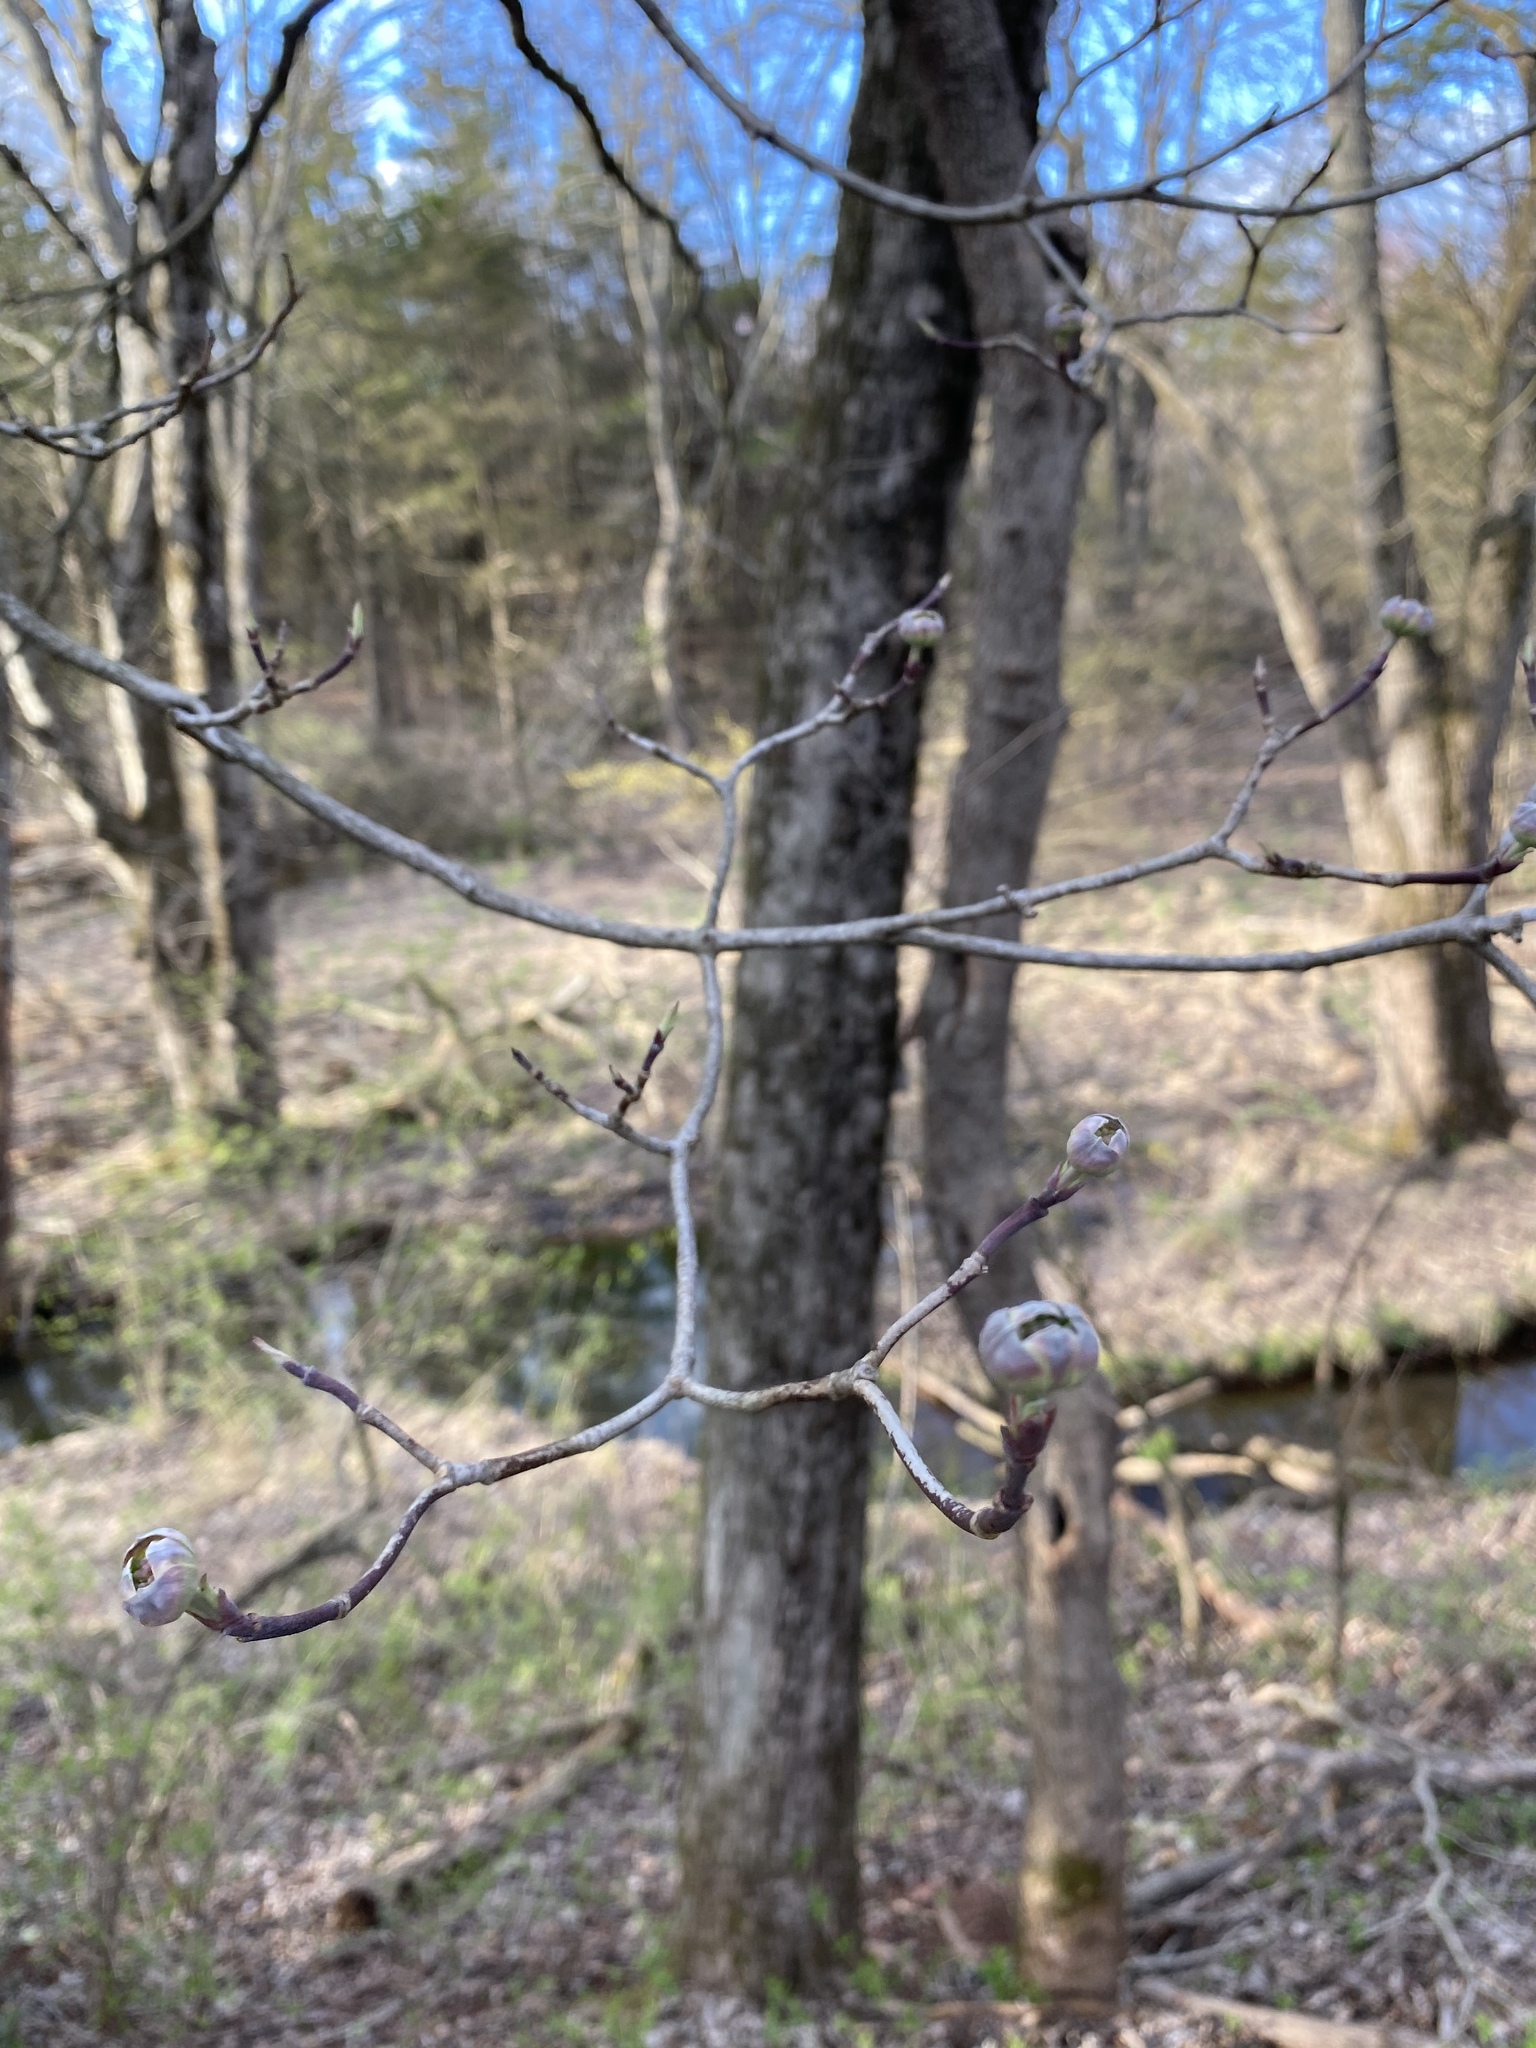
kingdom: Plantae
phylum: Tracheophyta
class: Magnoliopsida
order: Cornales
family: Cornaceae
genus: Cornus
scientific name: Cornus florida
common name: Flowering dogwood
